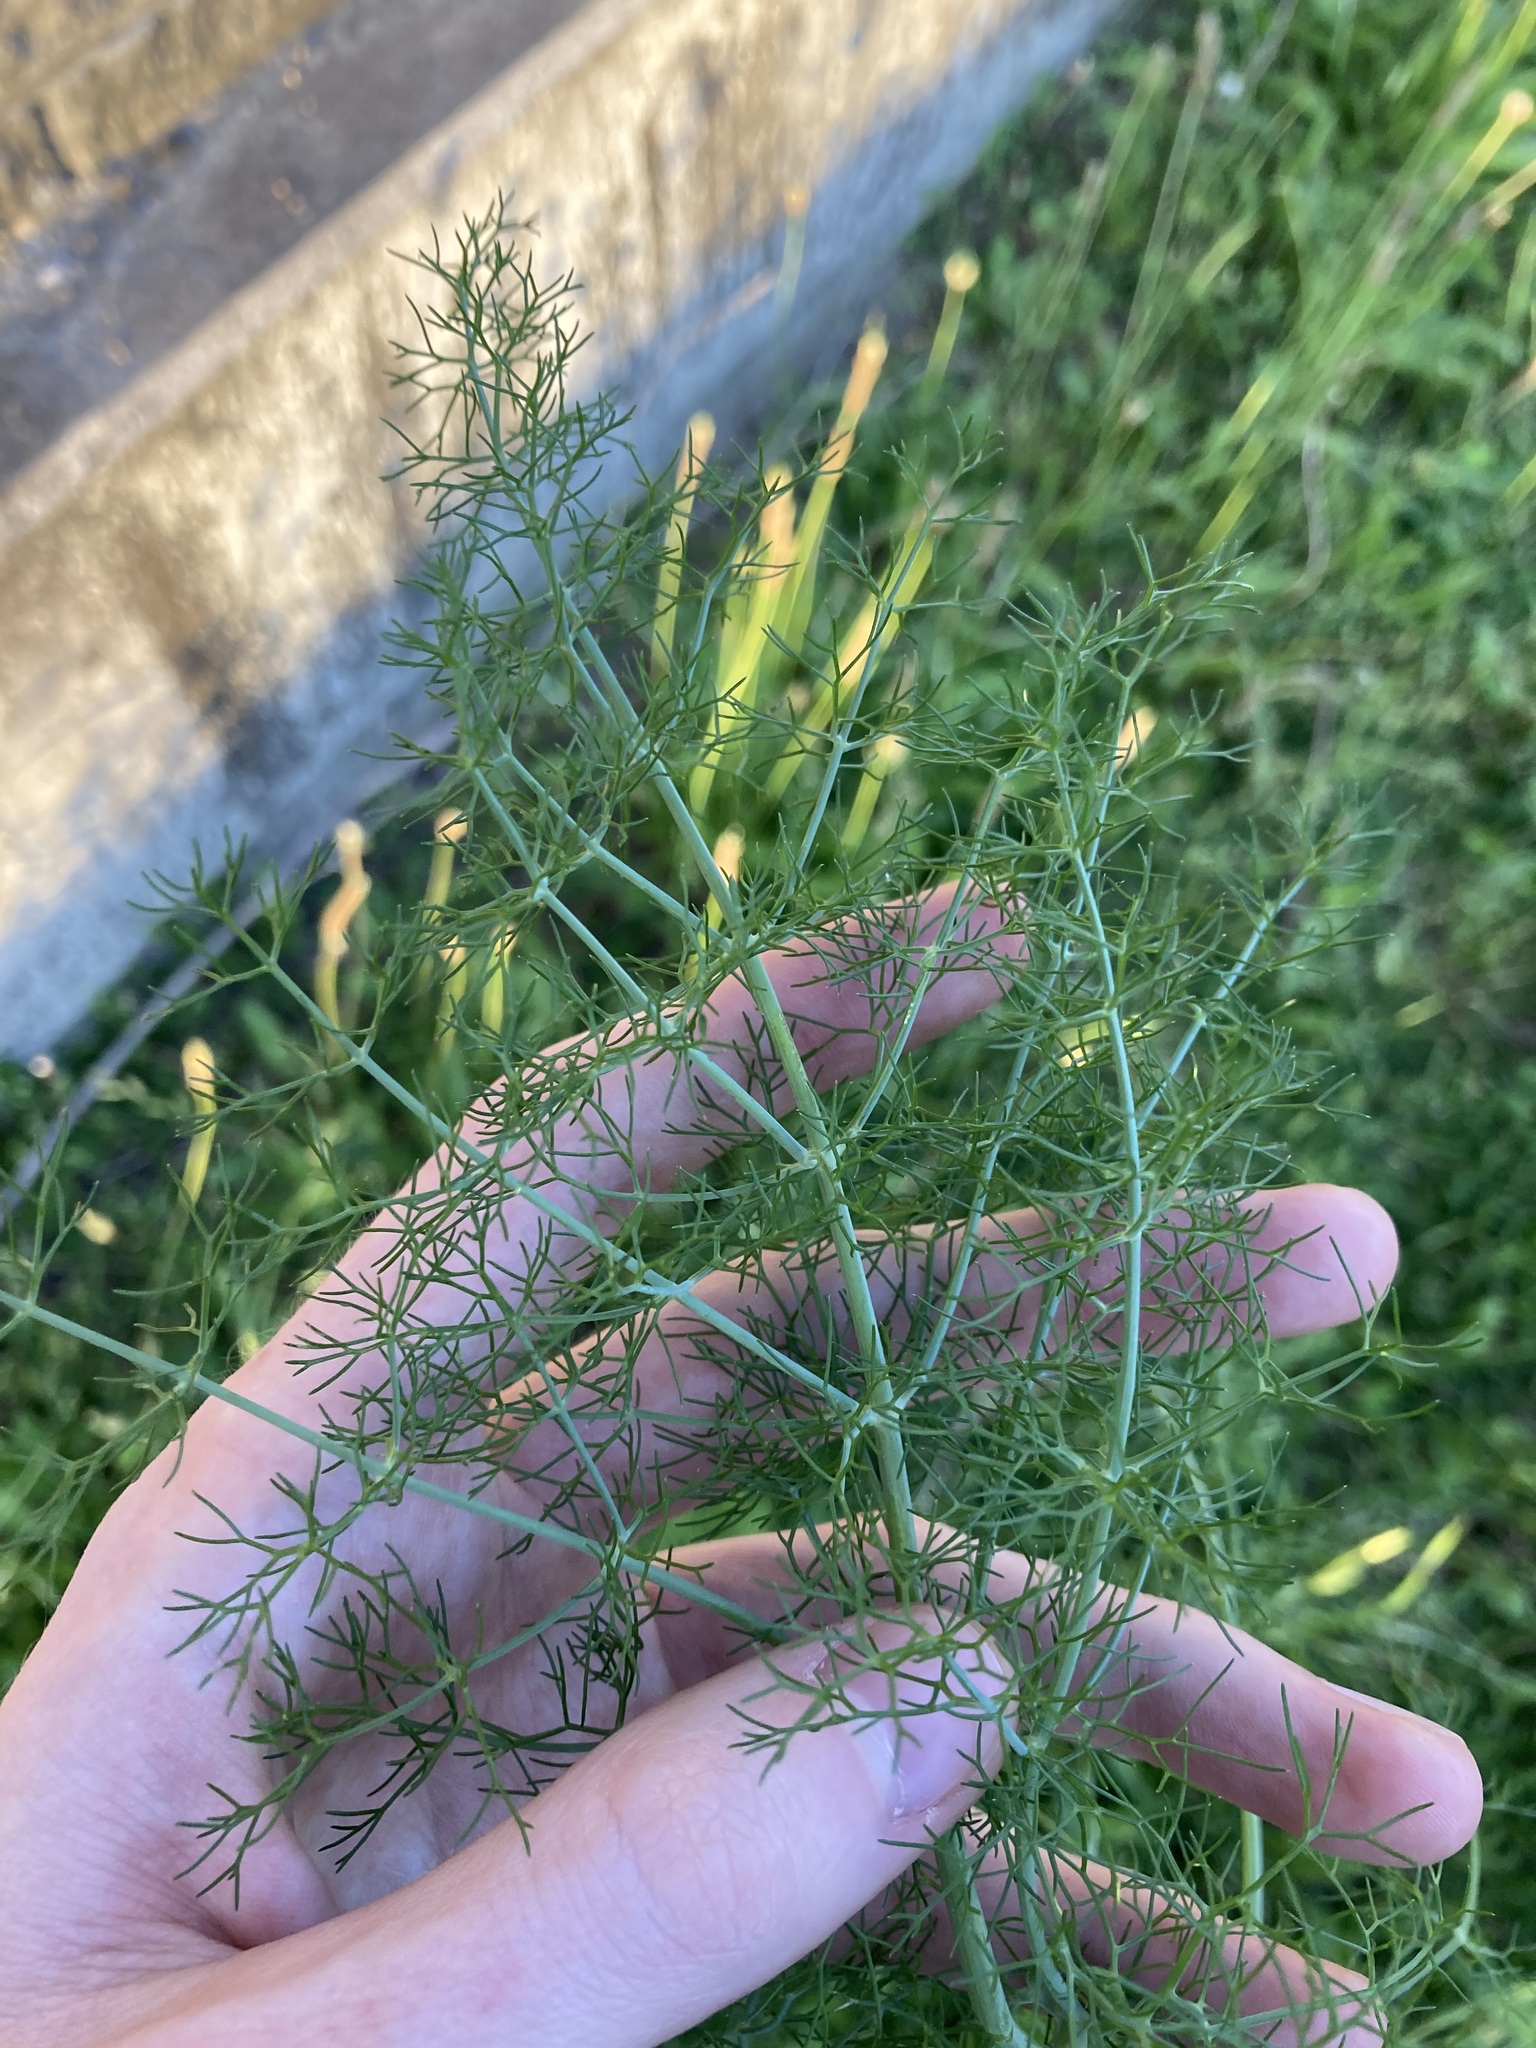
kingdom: Plantae
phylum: Tracheophyta
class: Magnoliopsida
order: Apiales
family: Apiaceae
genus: Foeniculum
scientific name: Foeniculum vulgare
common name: Fennel
